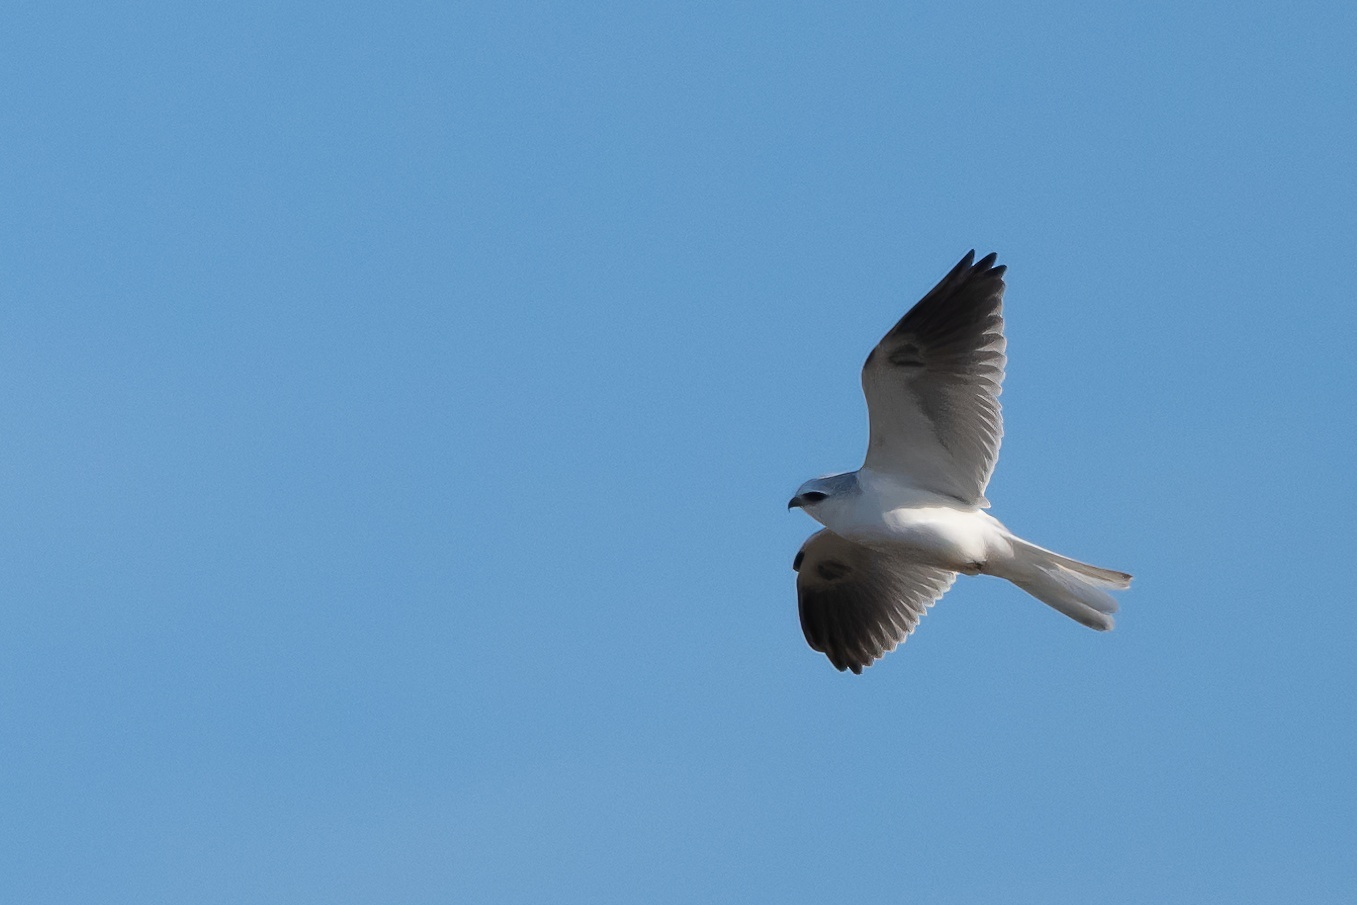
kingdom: Animalia
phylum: Chordata
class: Aves
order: Accipitriformes
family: Accipitridae
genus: Elanus
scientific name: Elanus leucurus
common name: White-tailed kite
